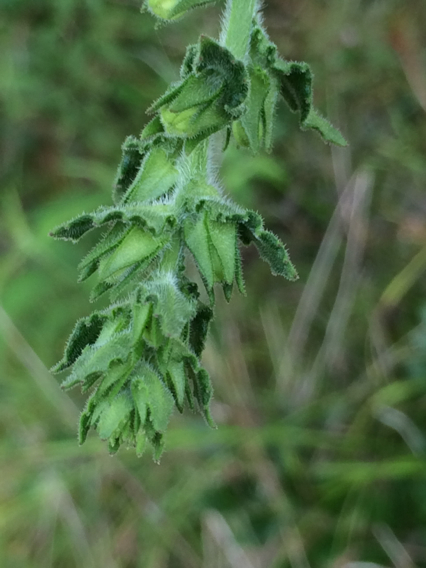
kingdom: Plantae
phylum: Tracheophyta
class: Magnoliopsida
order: Asterales
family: Campanulaceae
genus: Lobelia
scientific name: Lobelia puberula
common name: Purple dewdrop
